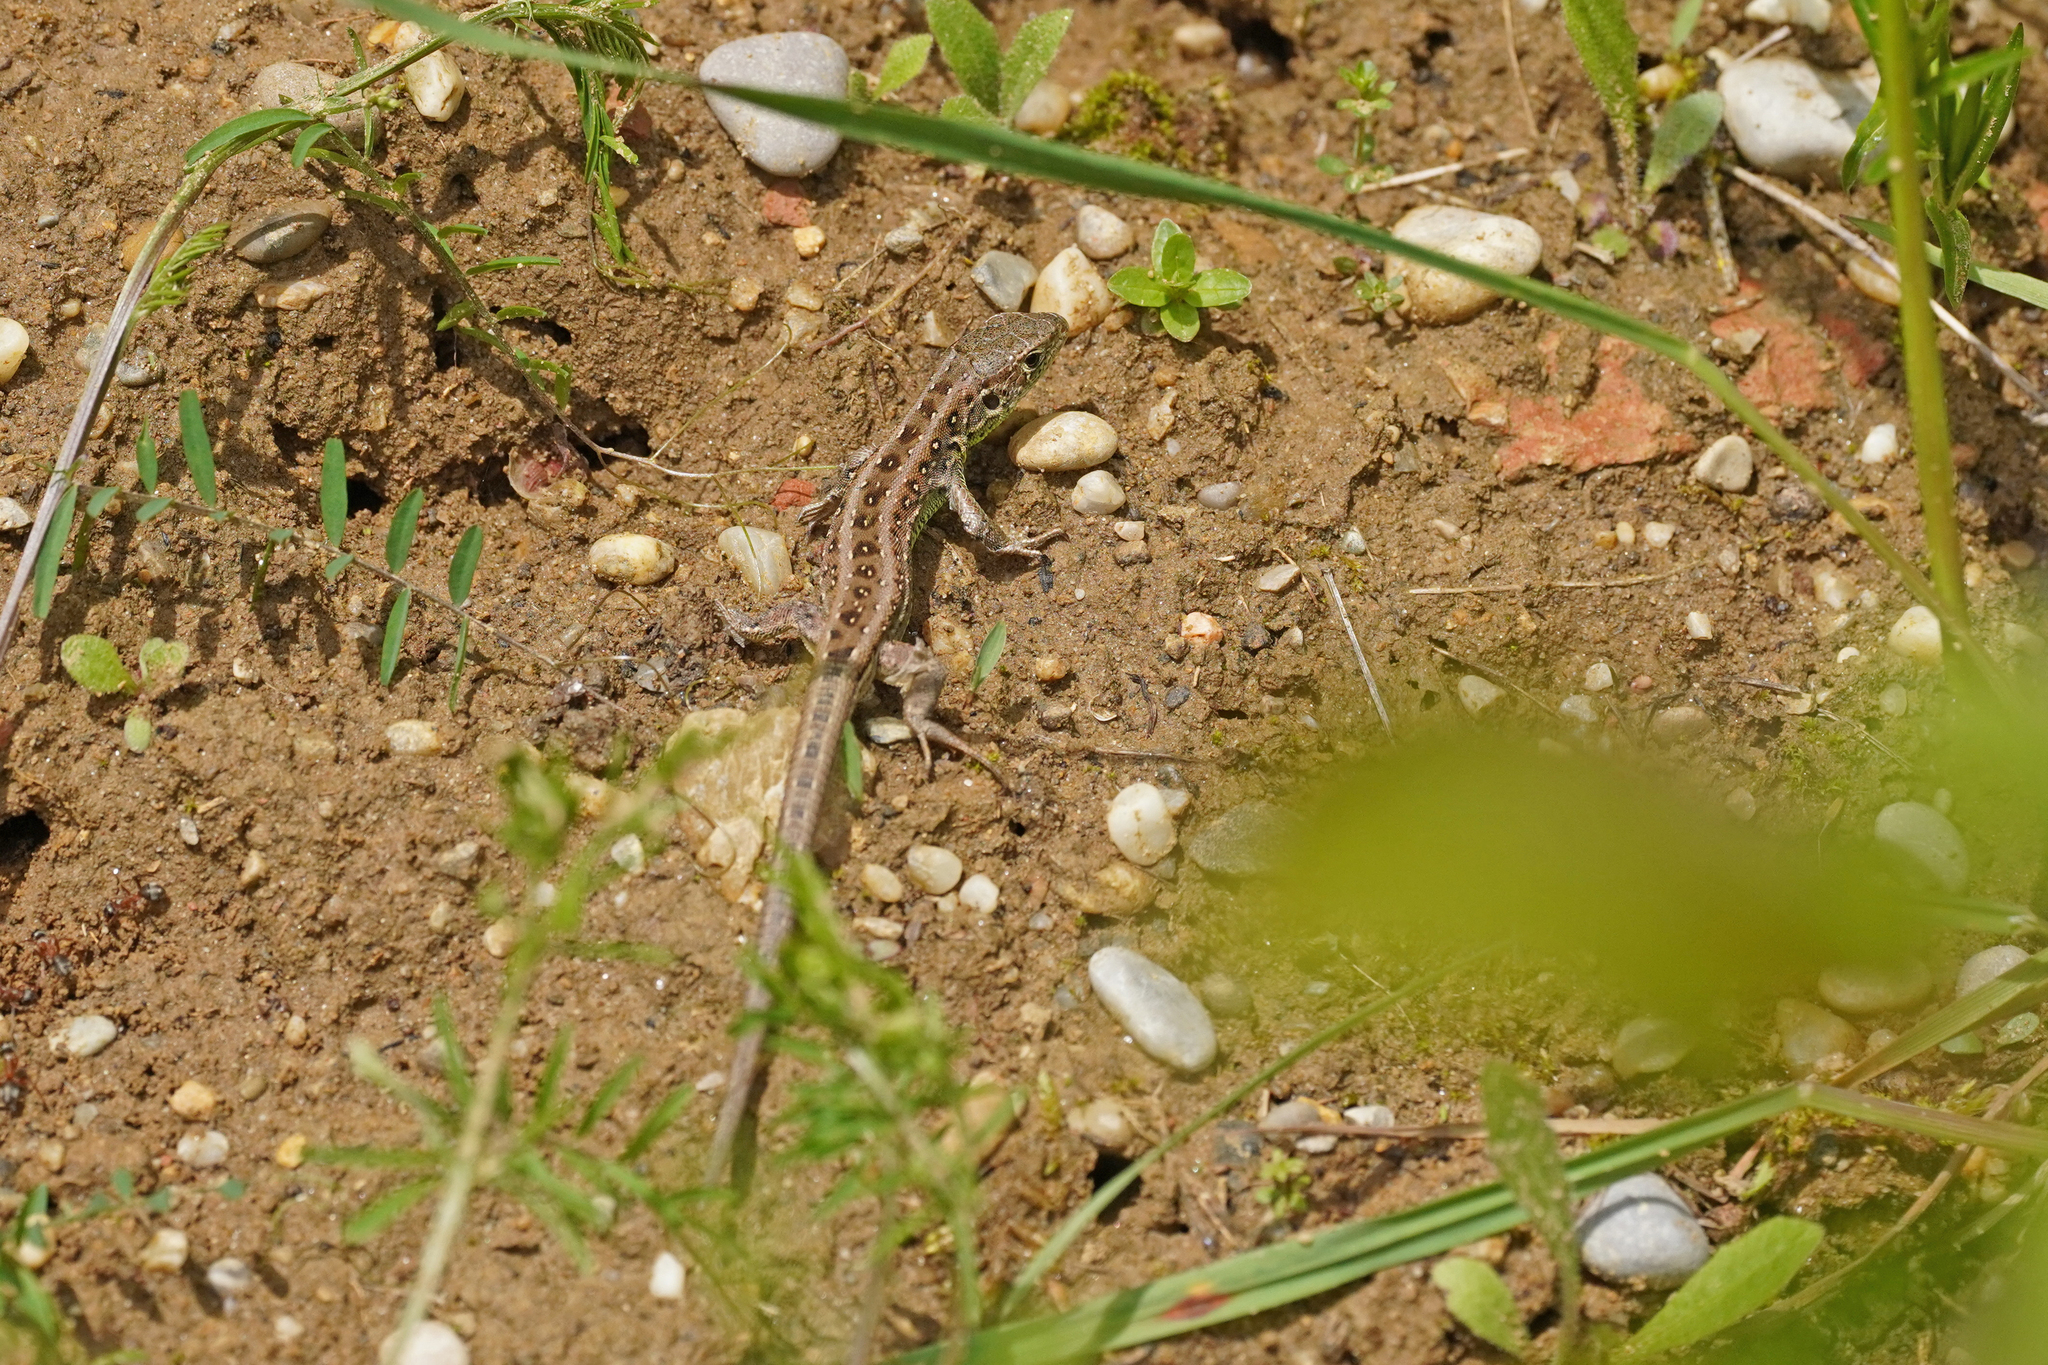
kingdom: Animalia
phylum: Chordata
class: Squamata
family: Lacertidae
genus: Lacerta
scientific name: Lacerta agilis
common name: Sand lizard
